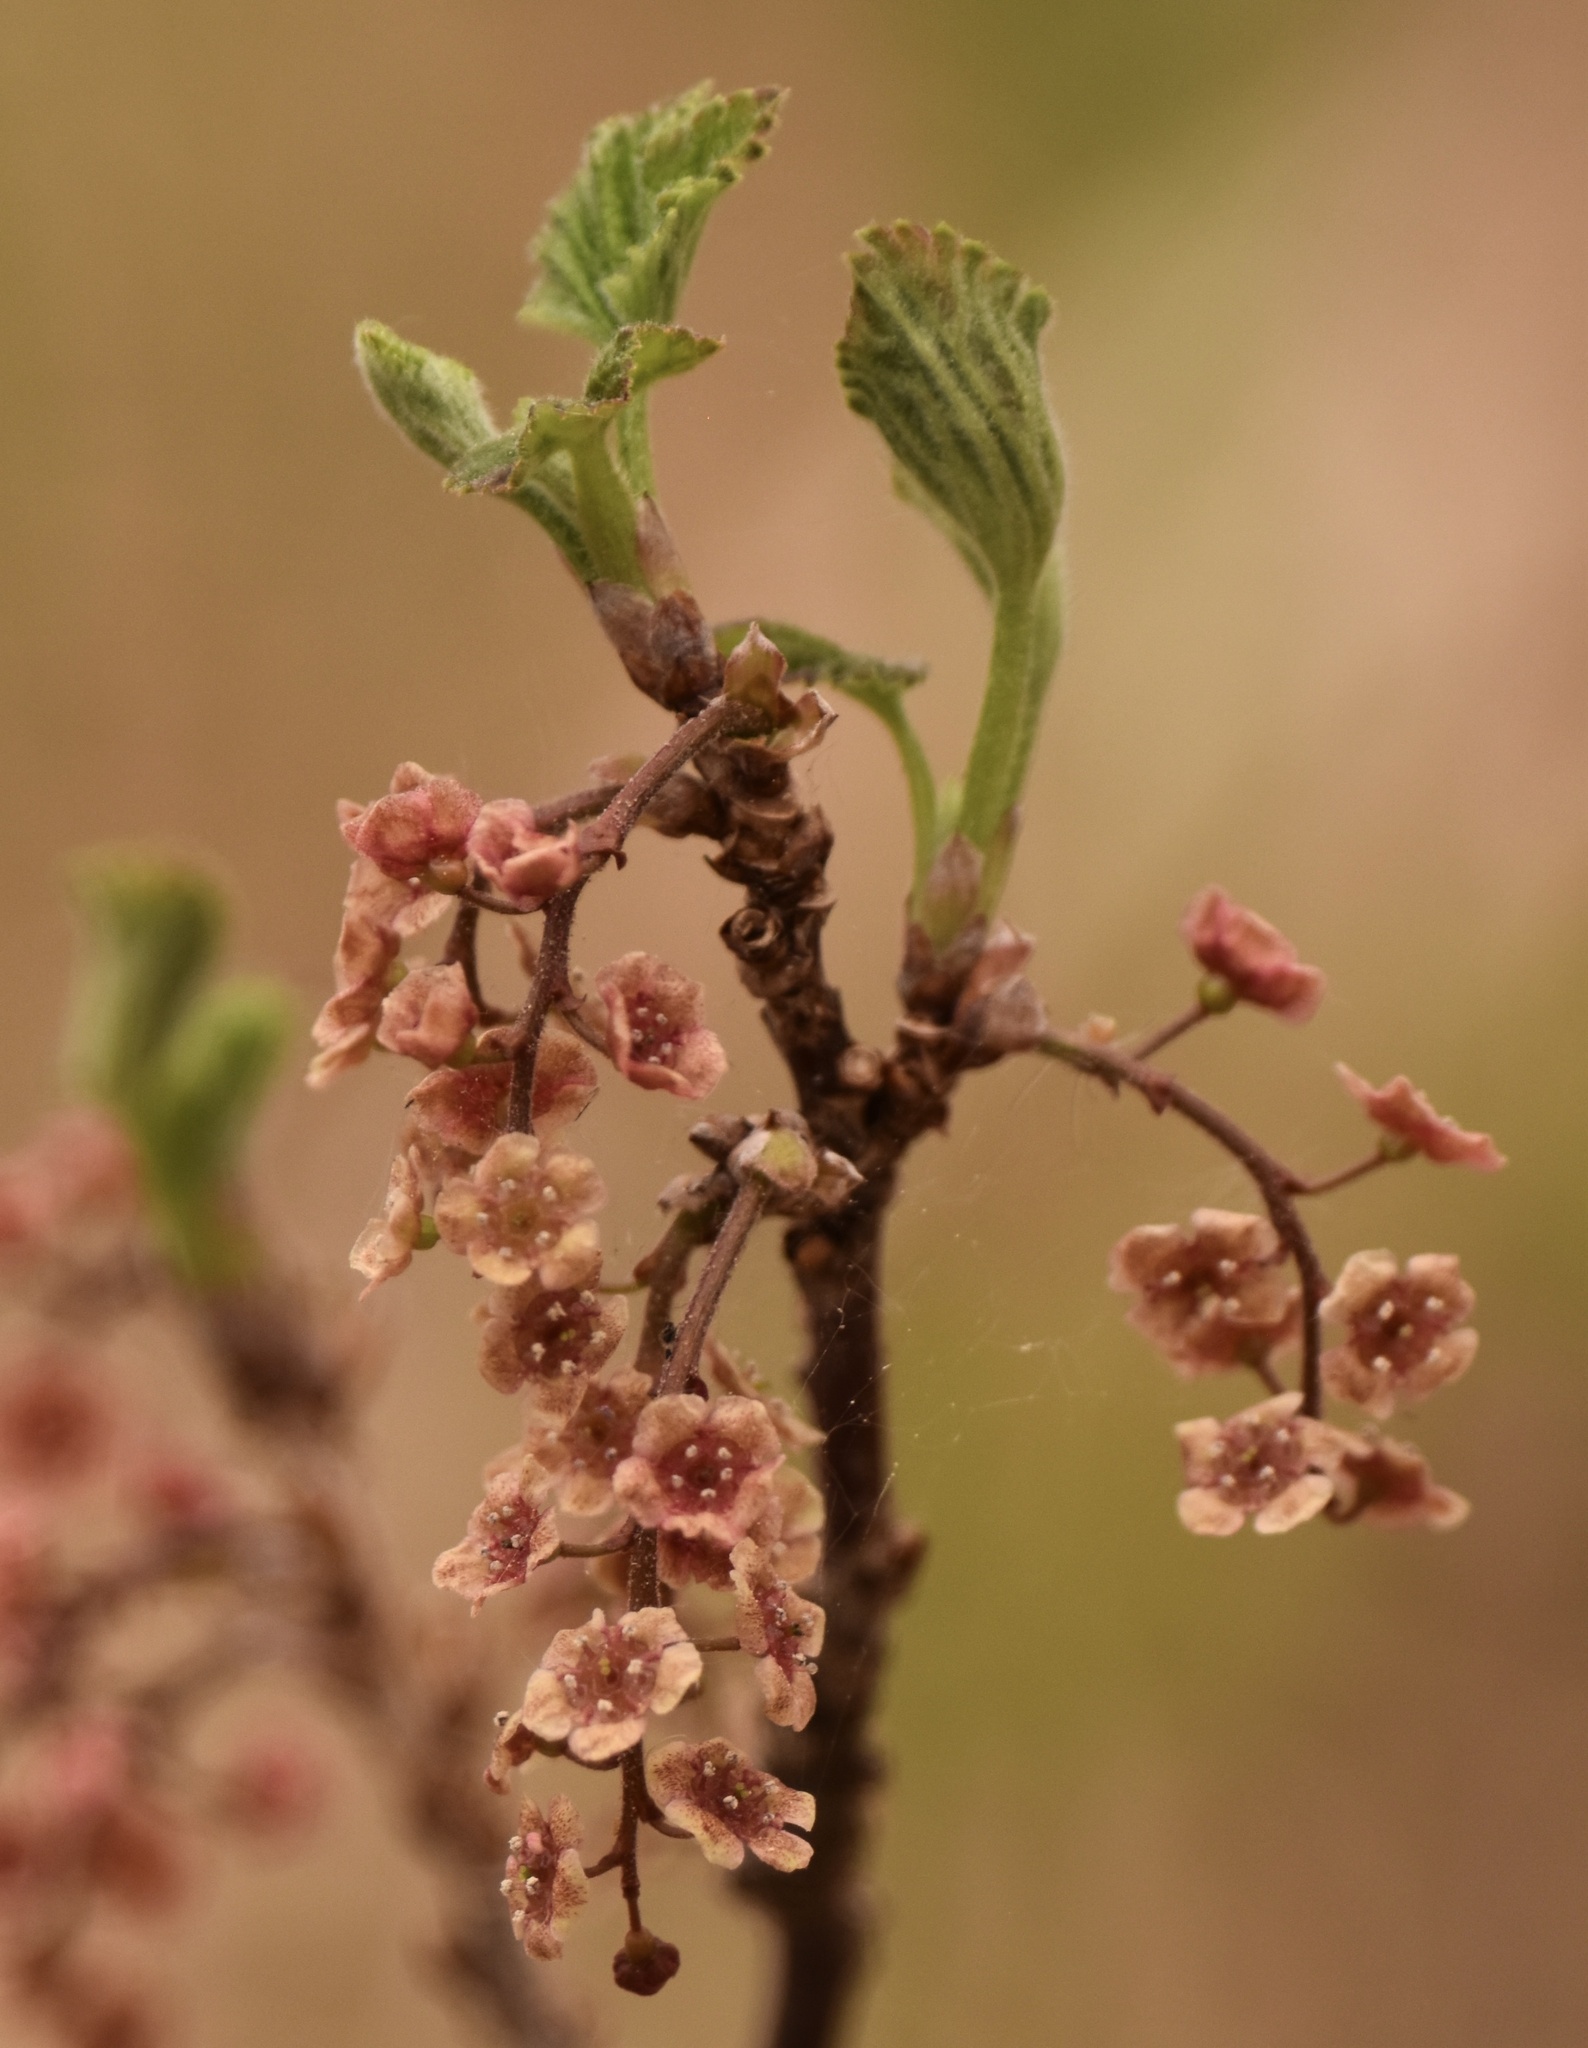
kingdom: Plantae
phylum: Tracheophyta
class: Magnoliopsida
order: Saxifragales
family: Grossulariaceae
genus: Ribes
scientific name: Ribes triste
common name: Swamp red currant
